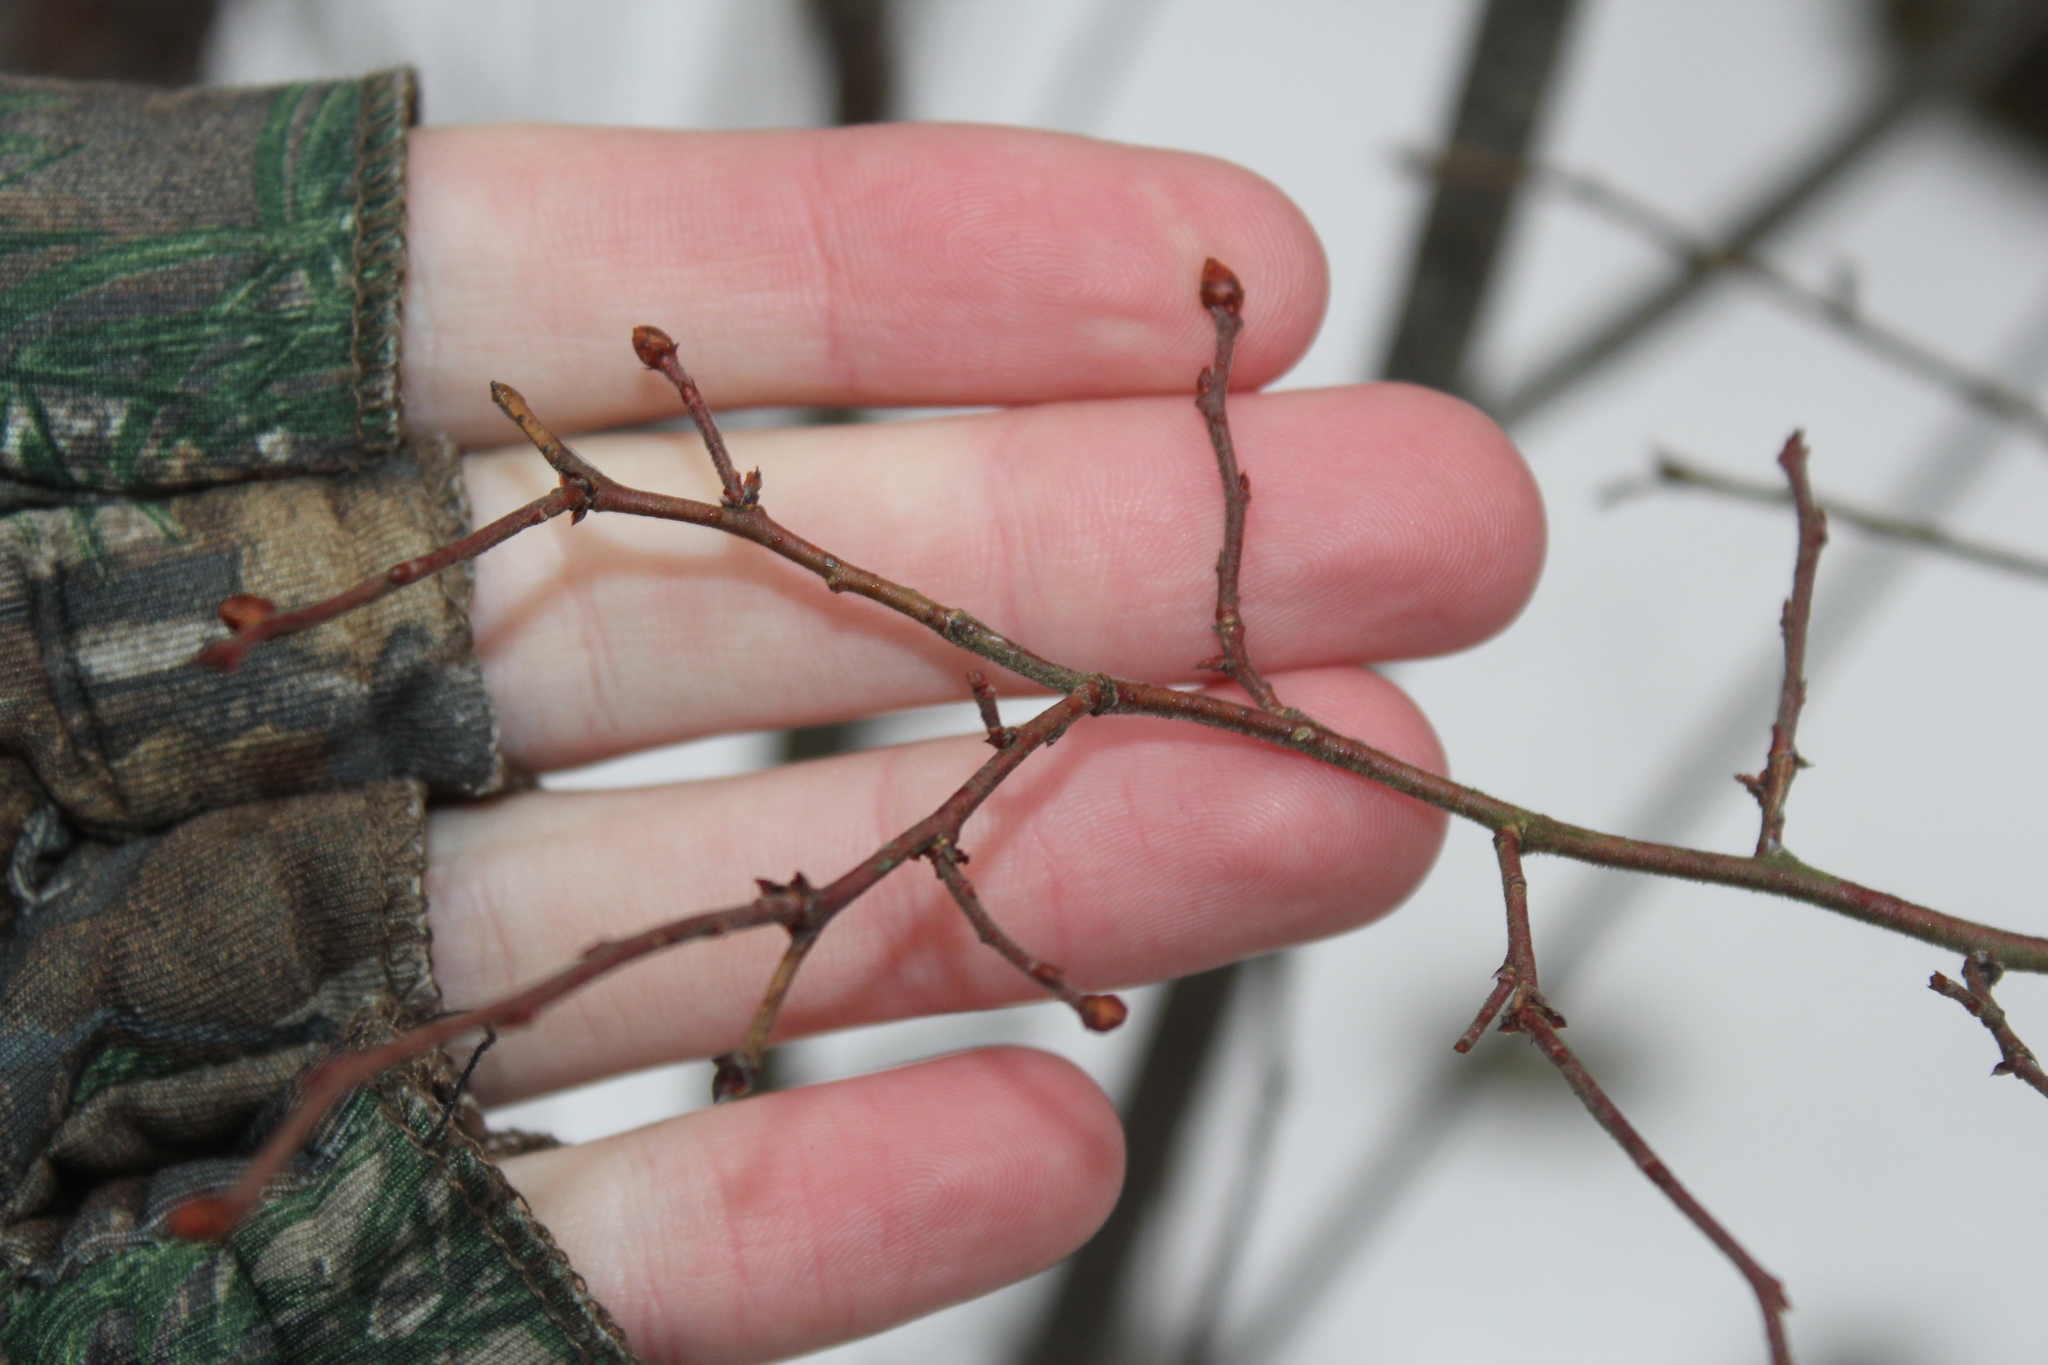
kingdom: Plantae
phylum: Tracheophyta
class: Magnoliopsida
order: Ericales
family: Ericaceae
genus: Vaccinium
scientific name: Vaccinium corymbosum
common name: Blueberry
